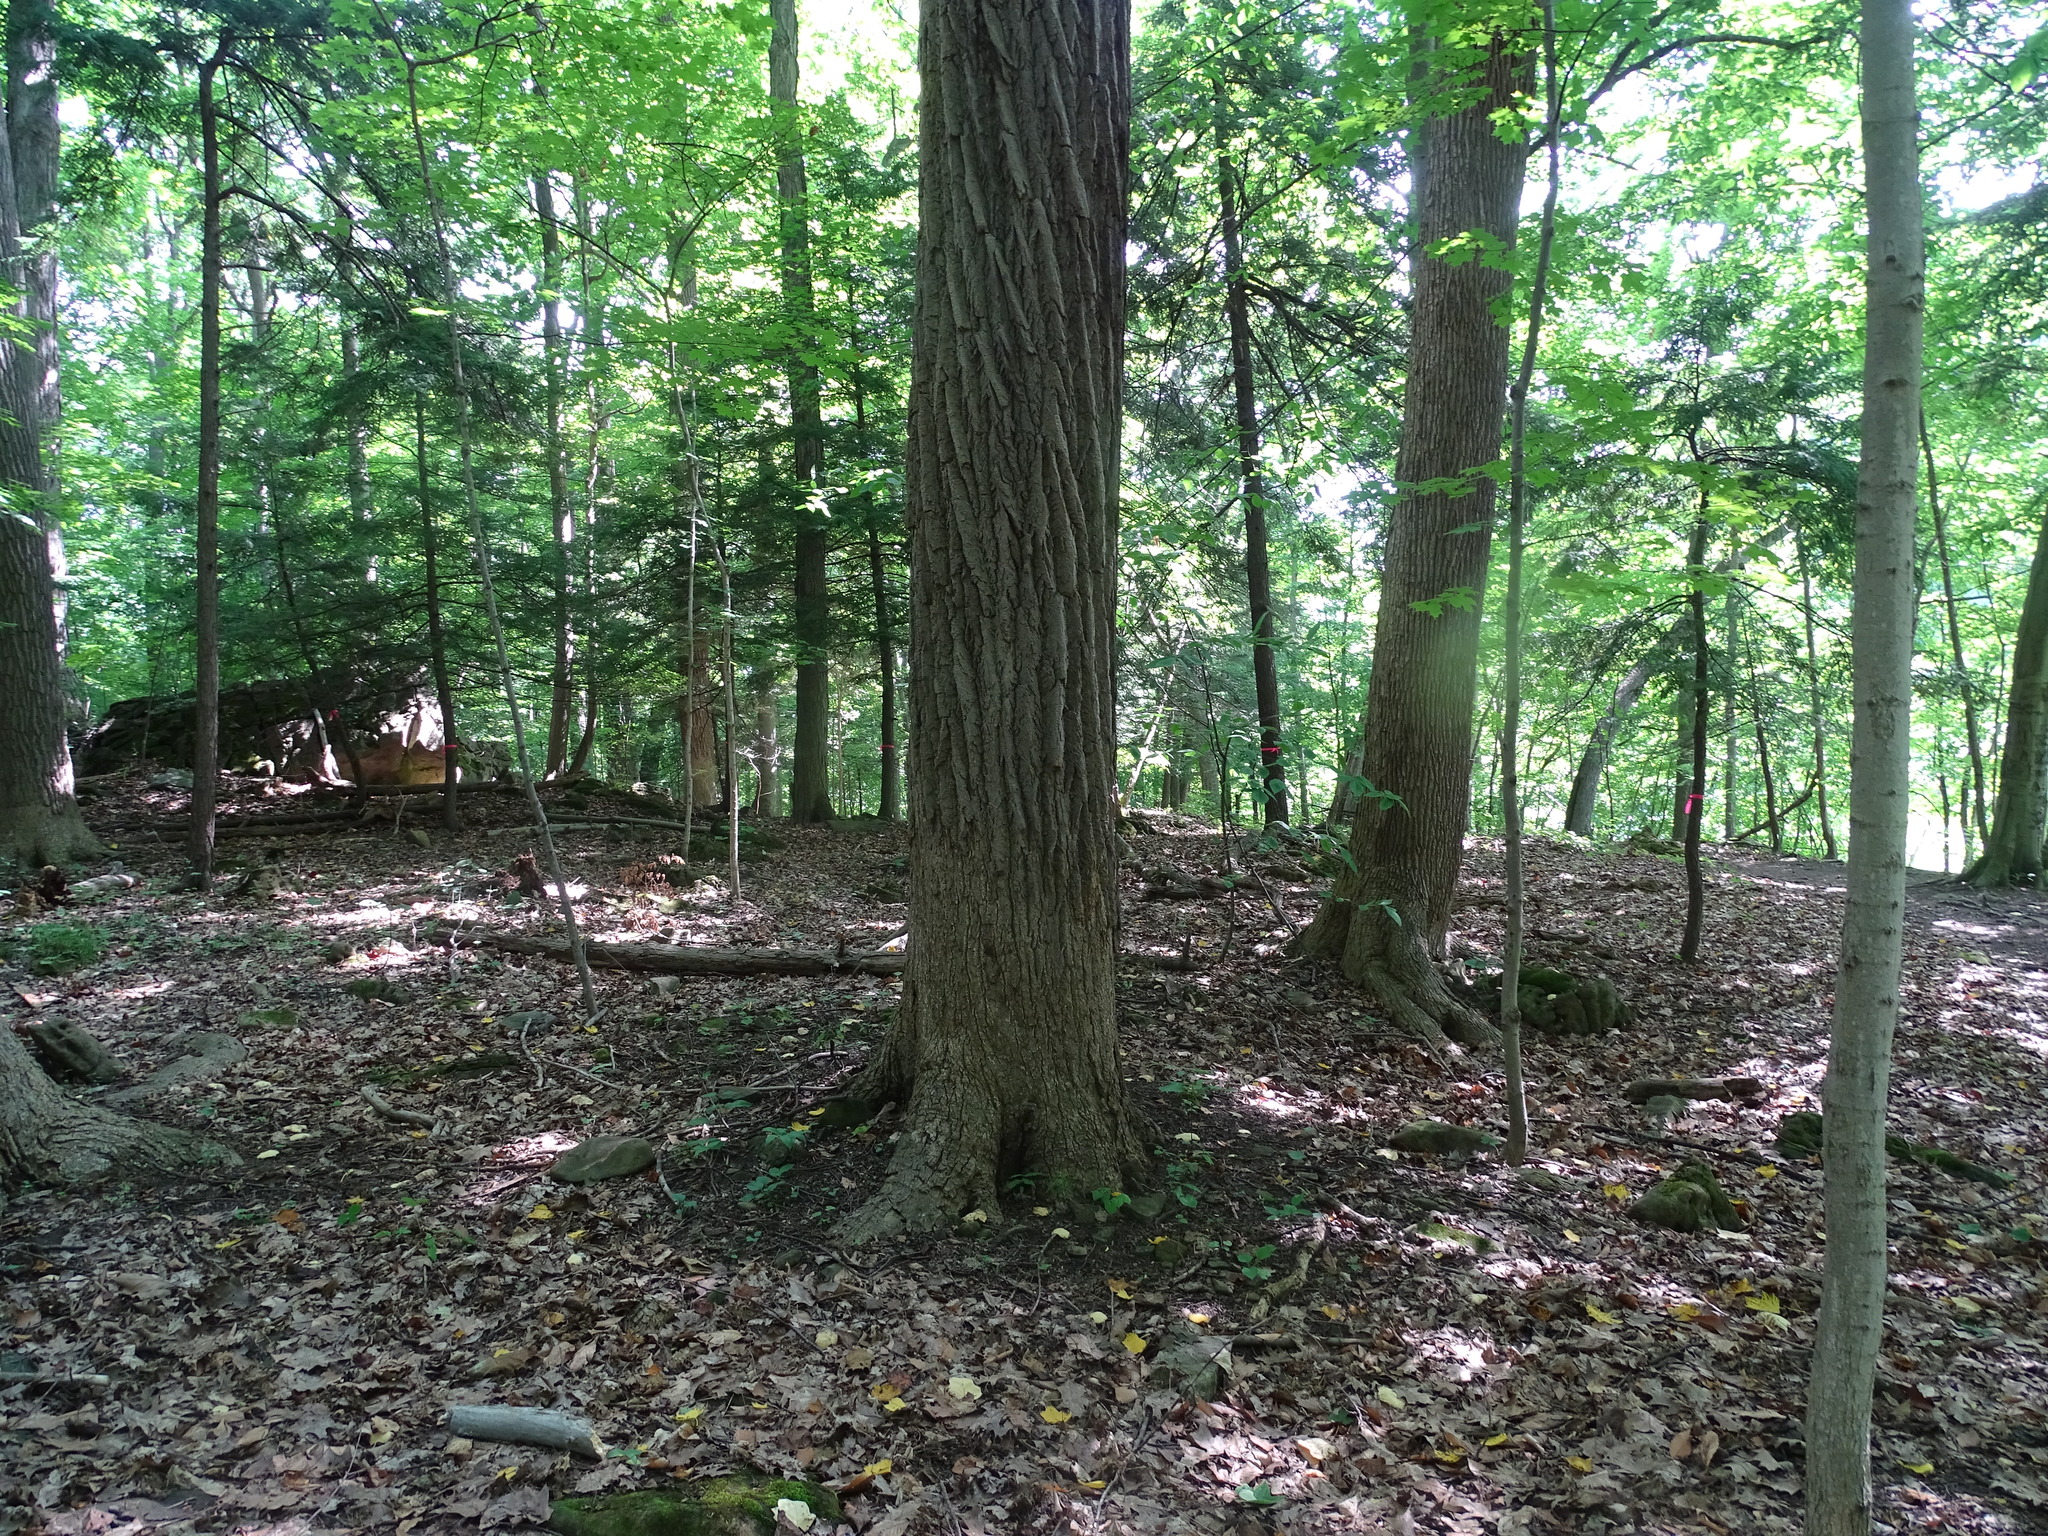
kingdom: Plantae
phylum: Tracheophyta
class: Magnoliopsida
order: Magnoliales
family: Magnoliaceae
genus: Liriodendron
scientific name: Liriodendron tulipifera
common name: Tulip tree
